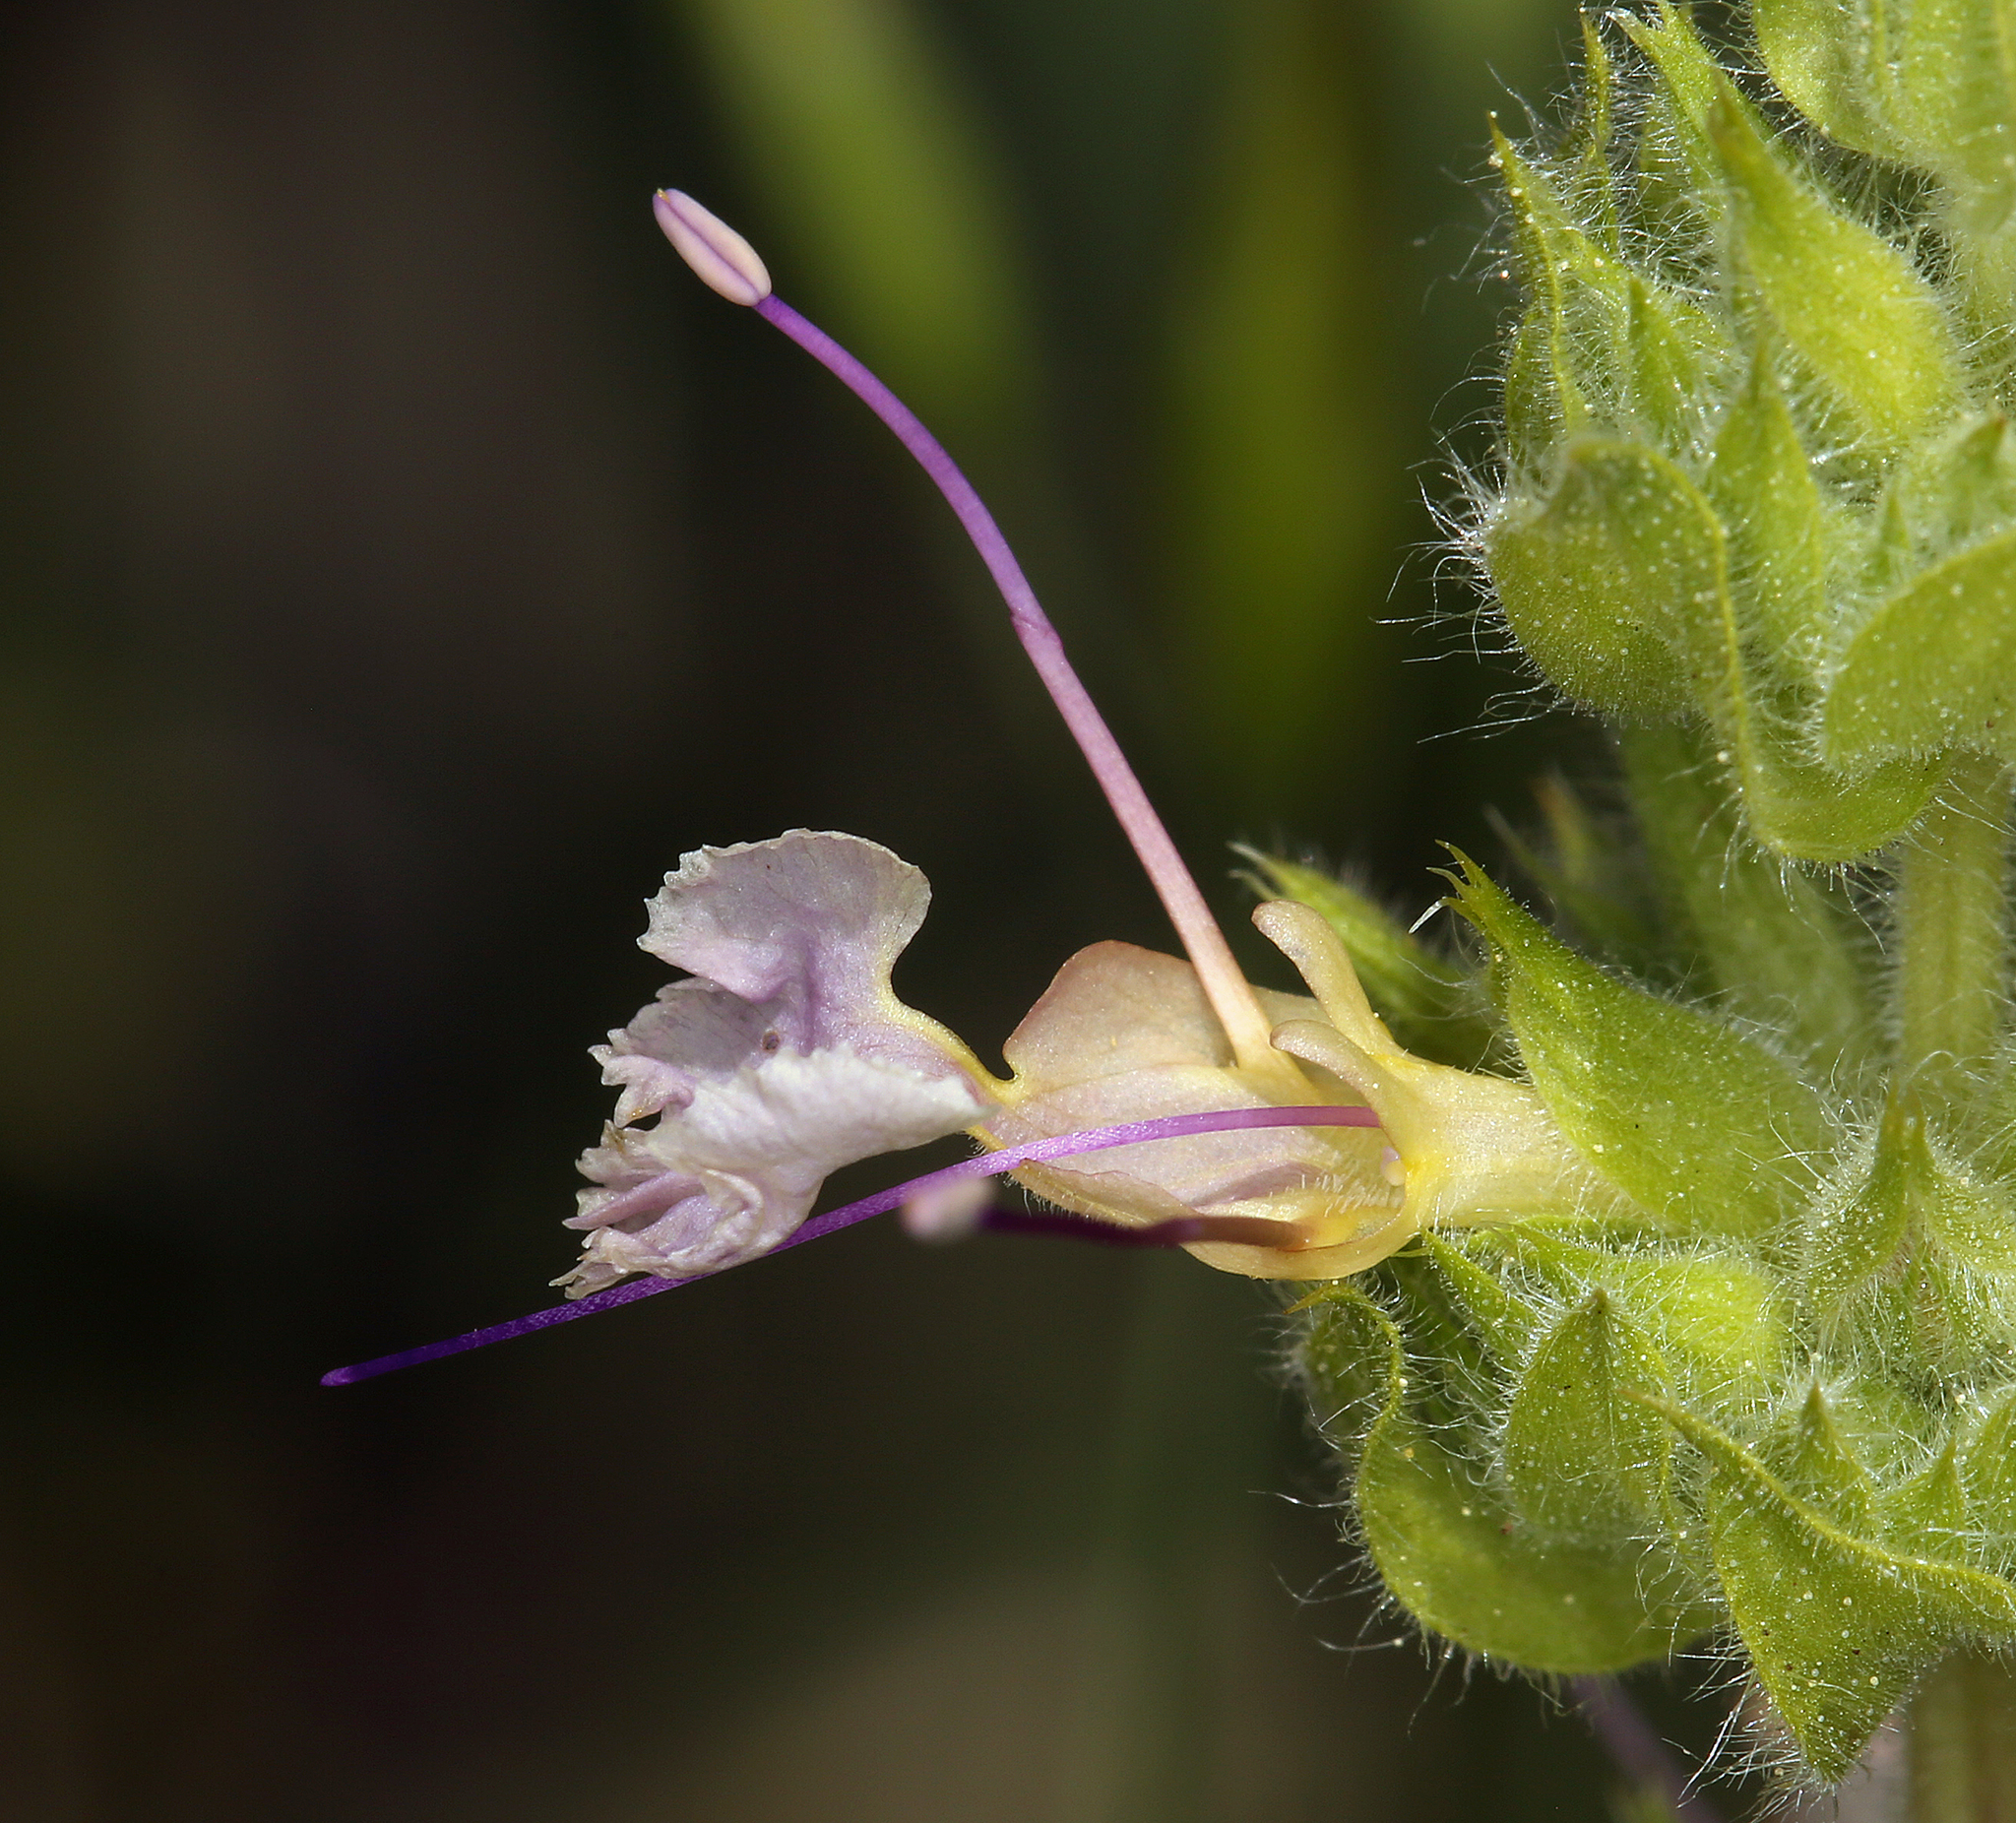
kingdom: Plantae
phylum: Tracheophyta
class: Magnoliopsida
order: Lamiales
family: Lamiaceae
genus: Salvia
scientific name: Salvia sonomensis
